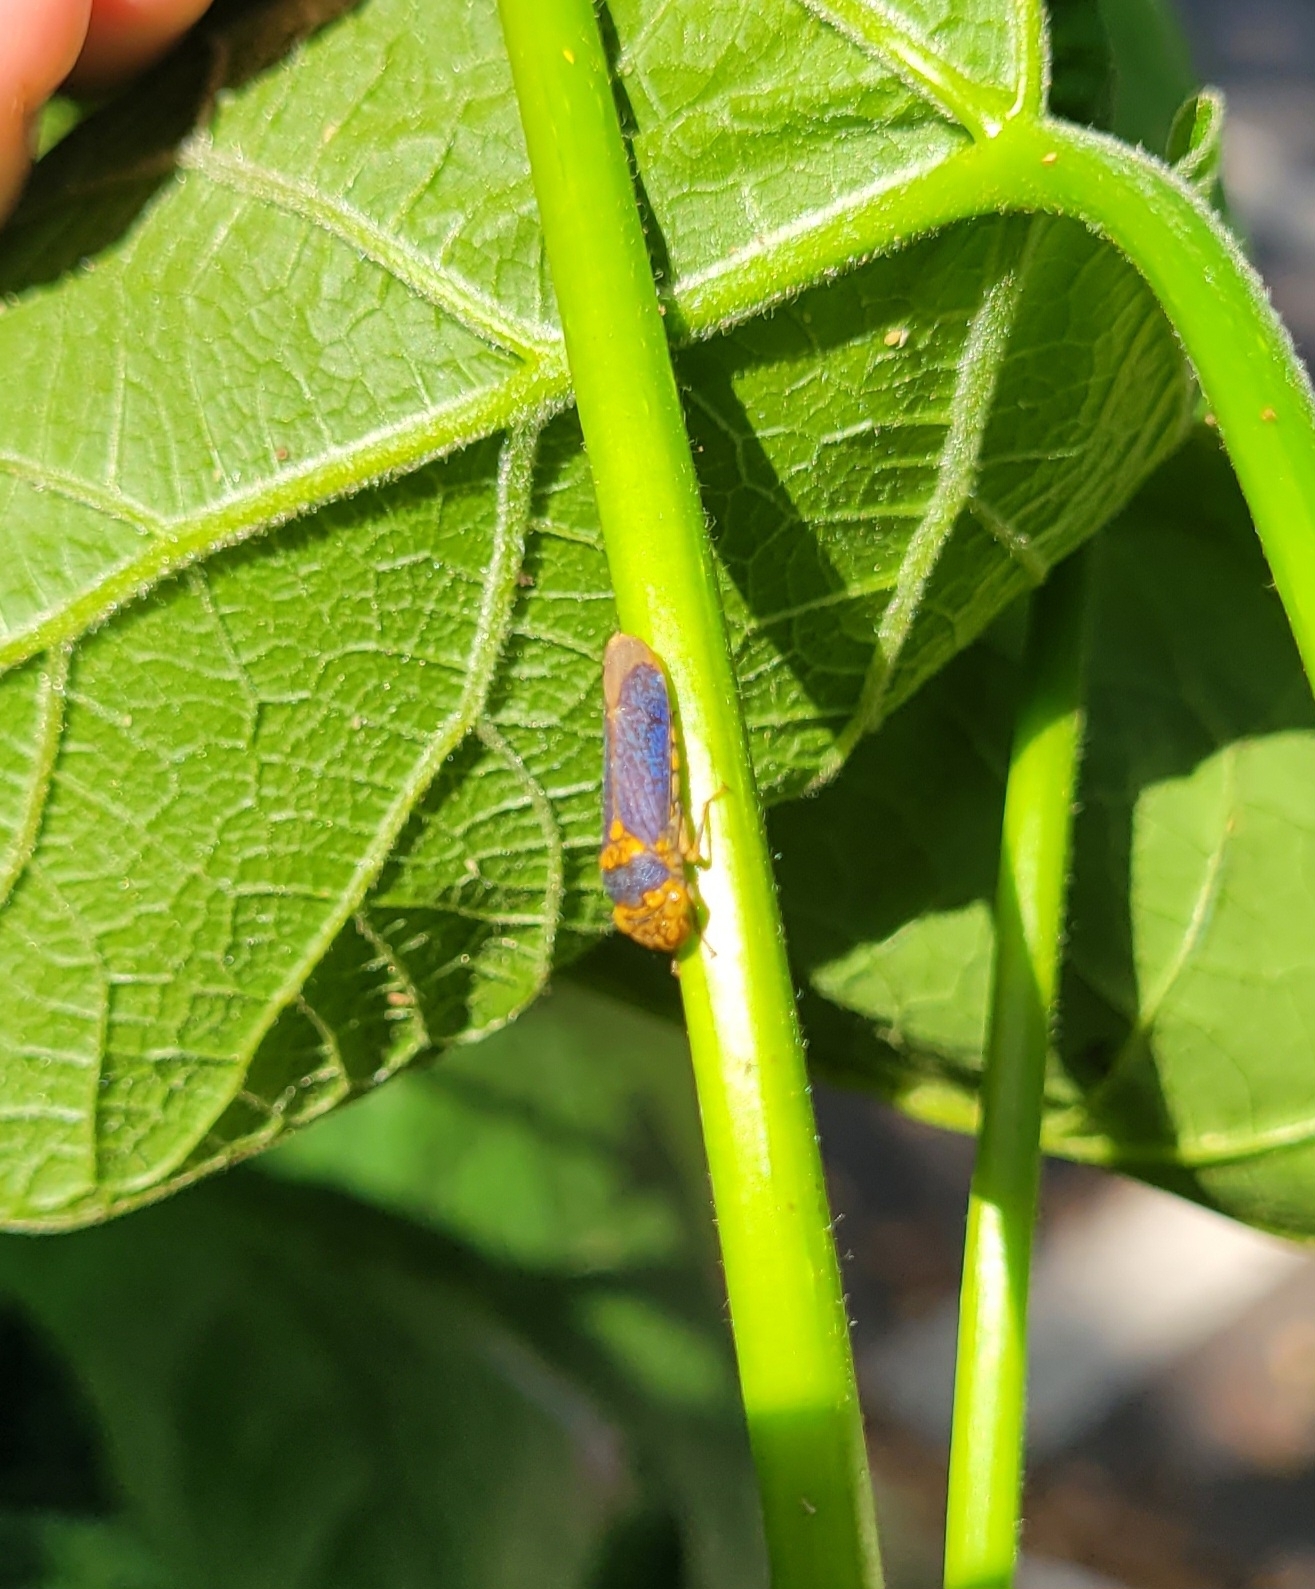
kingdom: Animalia
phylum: Arthropoda
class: Insecta
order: Hemiptera
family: Cicadellidae
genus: Oncometopia
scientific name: Oncometopia orbona
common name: Broad-headed sharpshooter
